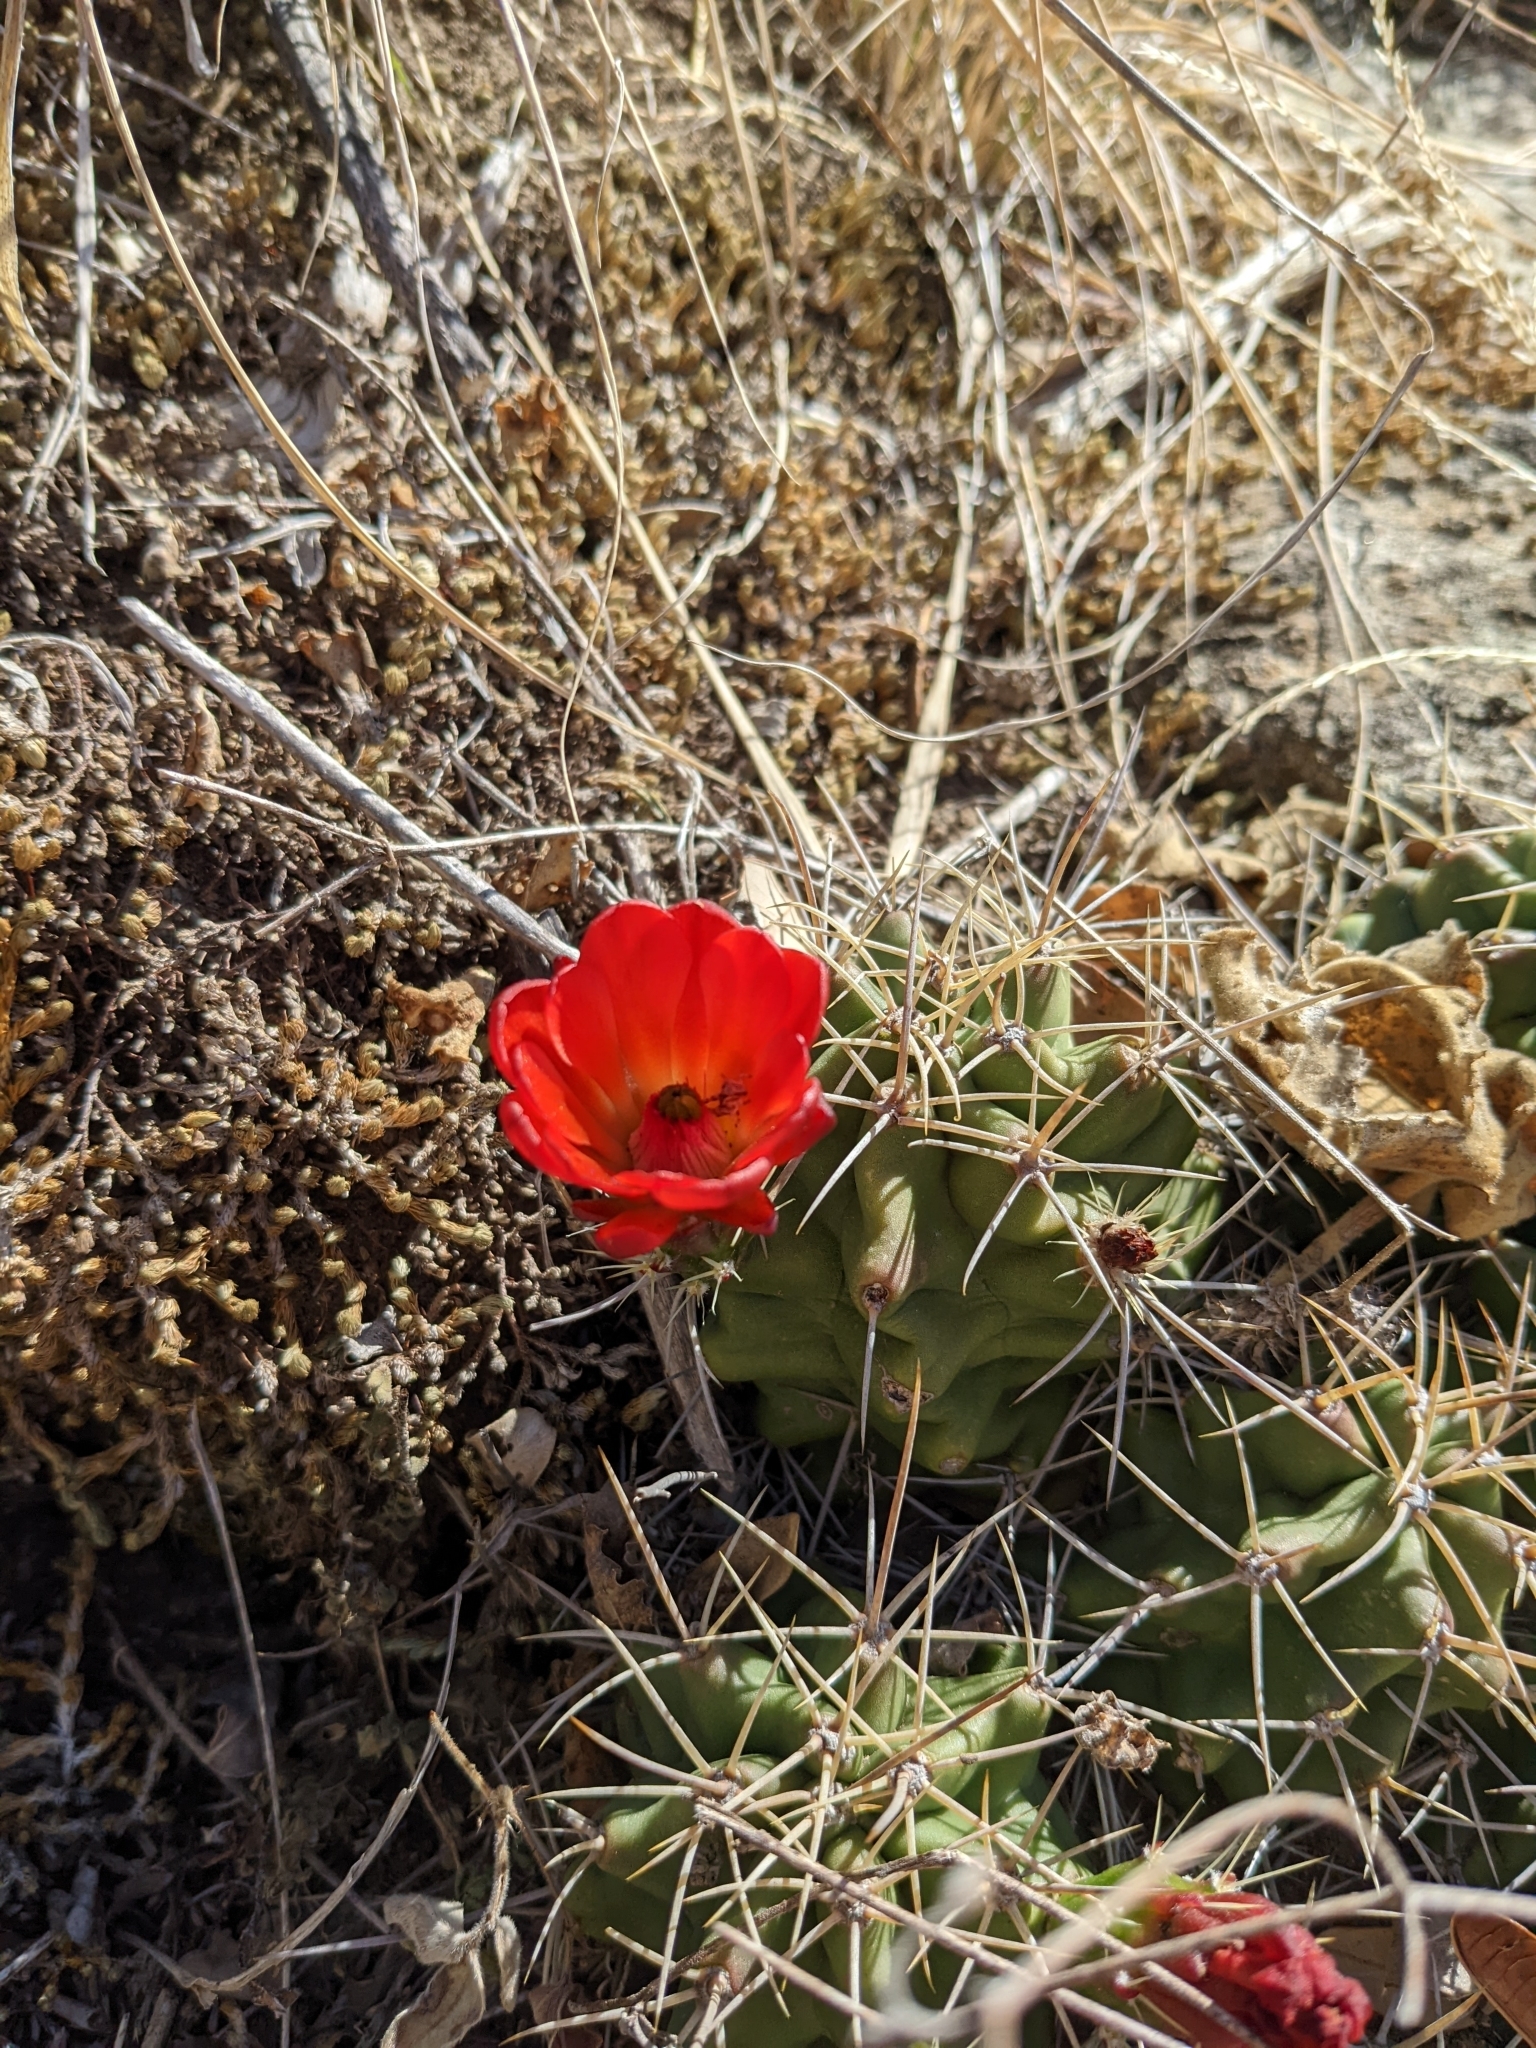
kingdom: Plantae
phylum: Tracheophyta
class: Magnoliopsida
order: Caryophyllales
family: Cactaceae
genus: Echinocereus
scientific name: Echinocereus coccineus
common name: Scarlet hedgehog cactus
